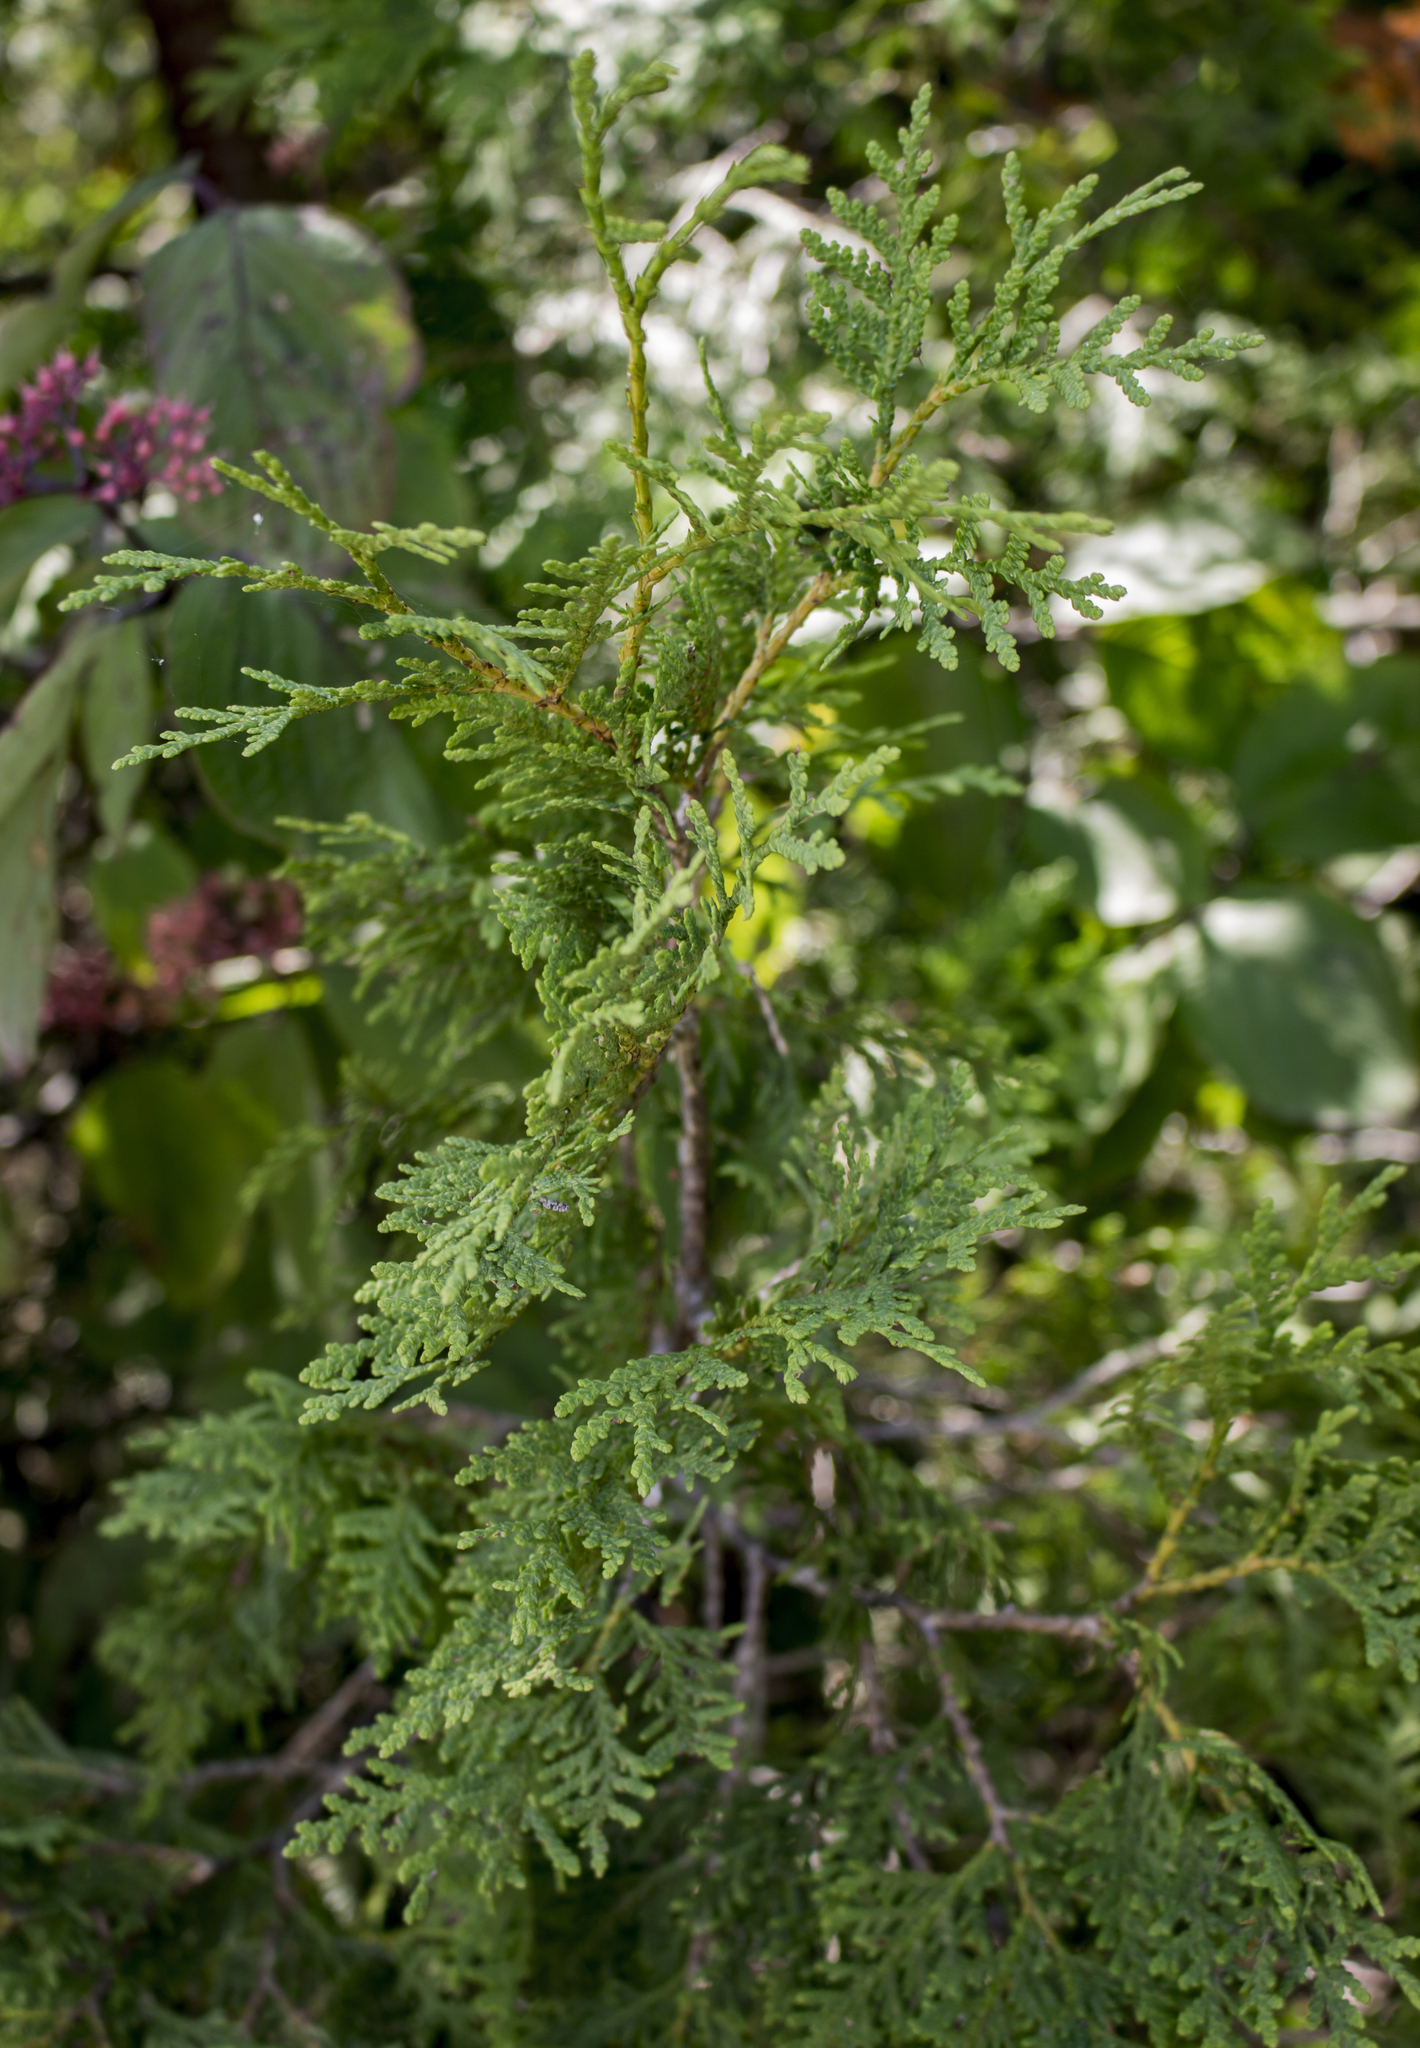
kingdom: Plantae
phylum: Tracheophyta
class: Pinopsida
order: Pinales
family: Cupressaceae
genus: Thuja
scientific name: Thuja occidentalis
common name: Northern white-cedar
